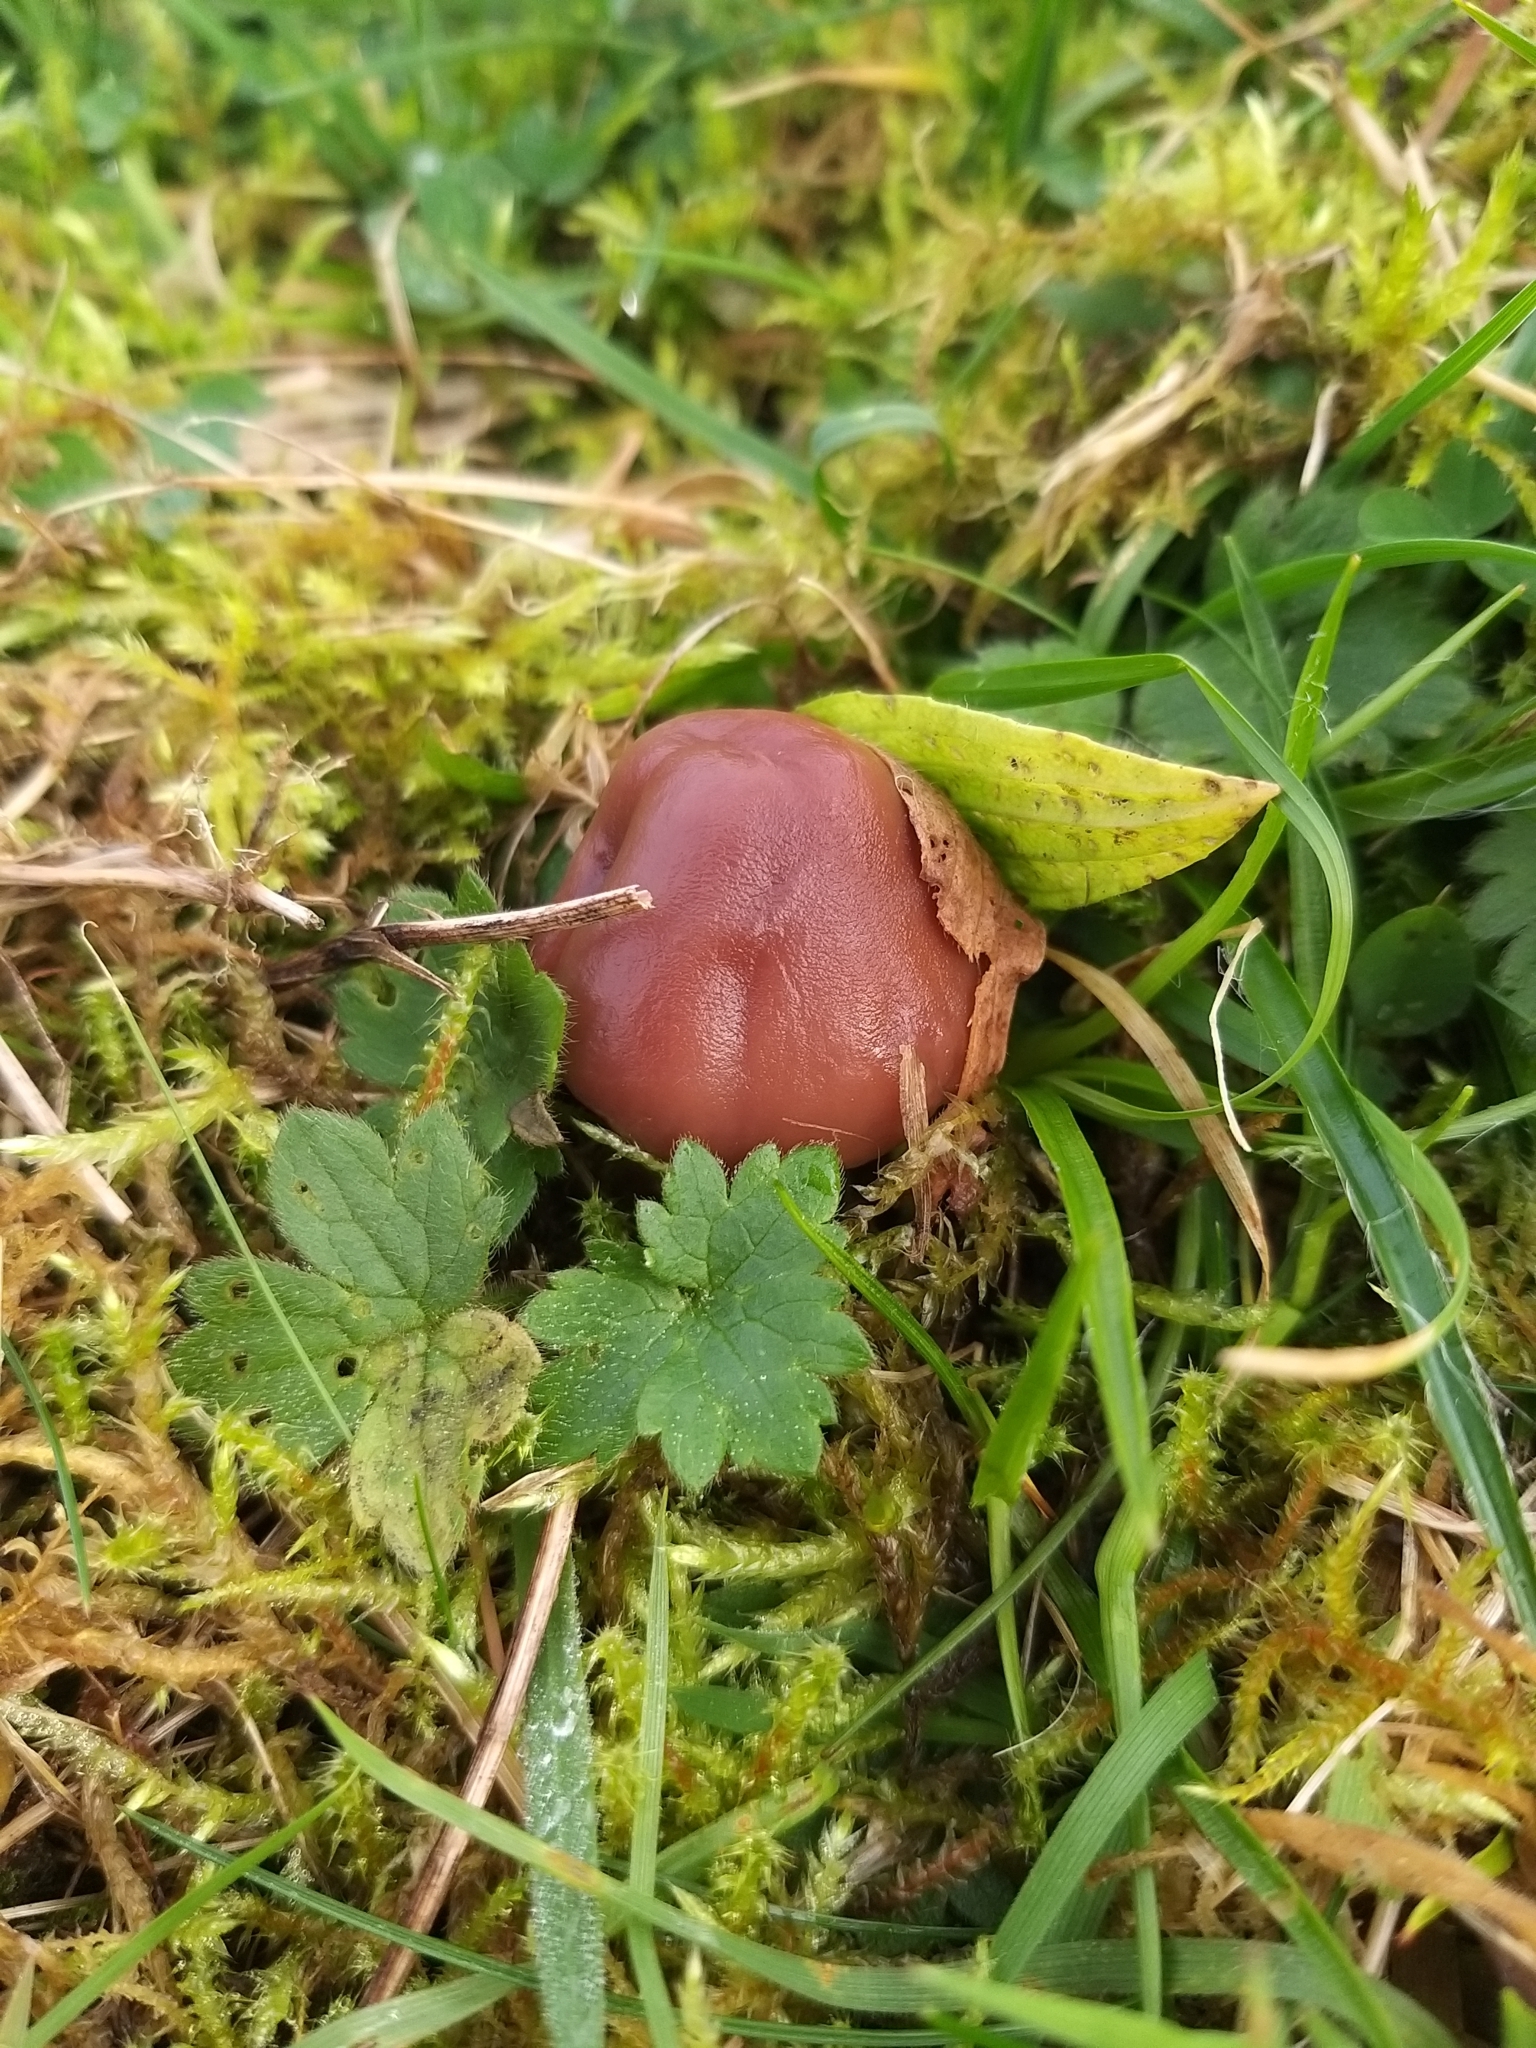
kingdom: Fungi
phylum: Basidiomycota
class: Agaricomycetes
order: Agaricales
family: Hygrophoraceae
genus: Gliophorus
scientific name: Gliophorus reginae
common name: Jubilee waxcap
